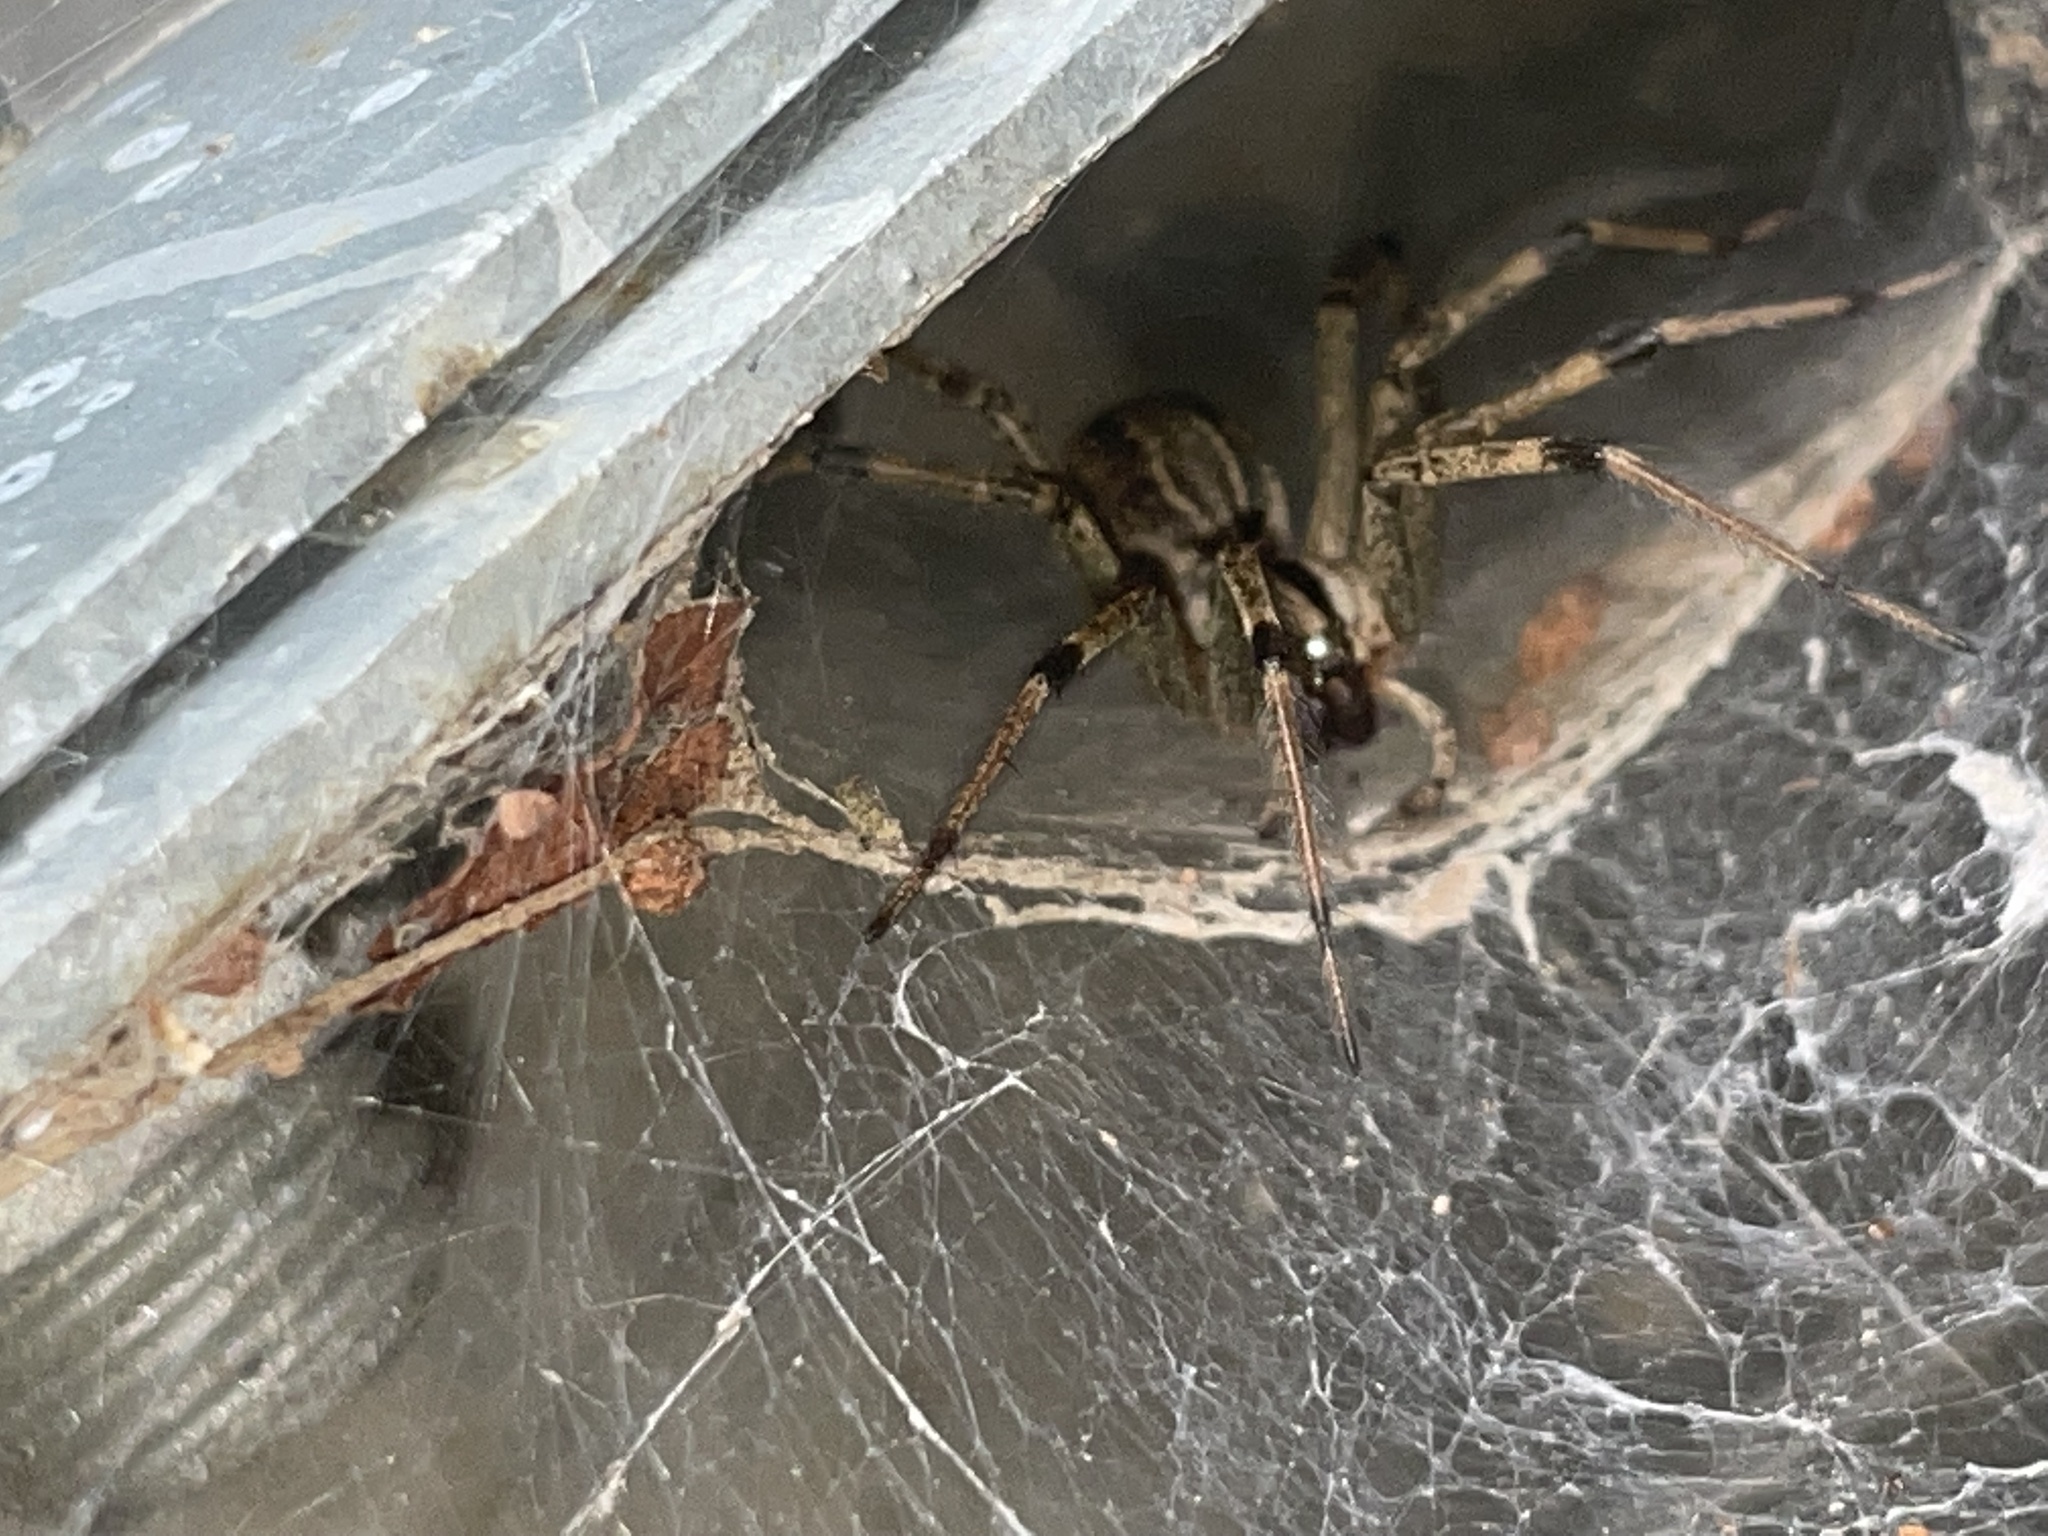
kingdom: Animalia
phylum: Arthropoda
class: Arachnida
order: Araneae
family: Agelenidae
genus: Agelenopsis
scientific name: Agelenopsis
